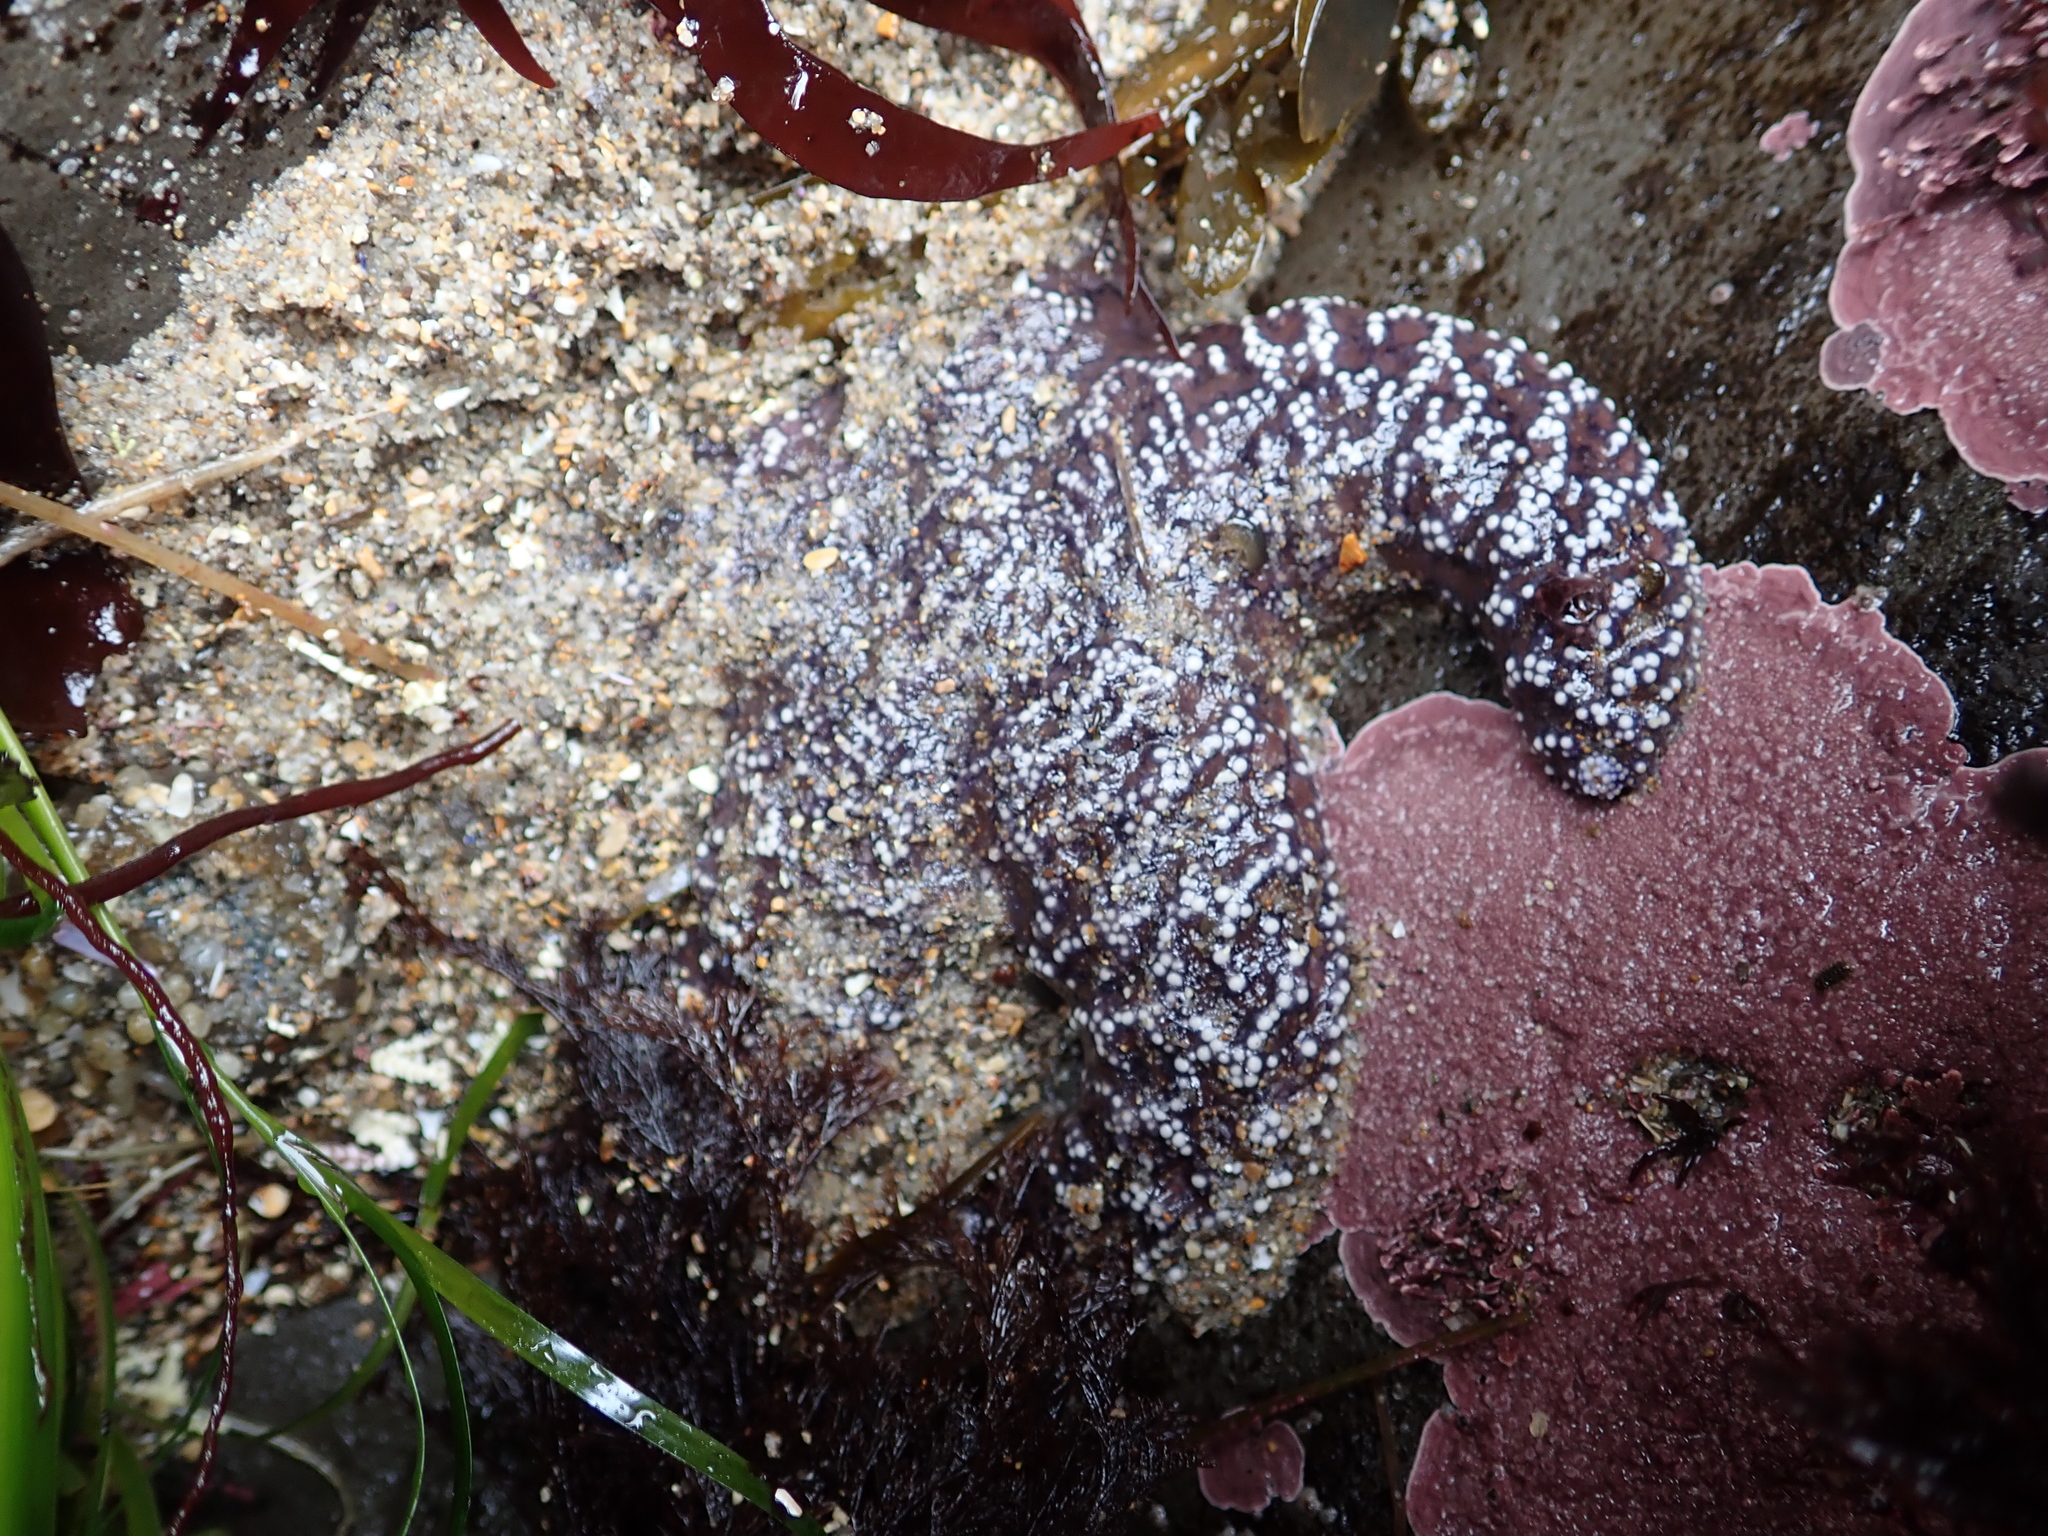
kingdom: Animalia
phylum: Echinodermata
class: Asteroidea
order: Forcipulatida
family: Asteriidae
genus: Pisaster
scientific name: Pisaster ochraceus
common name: Ochre stars
